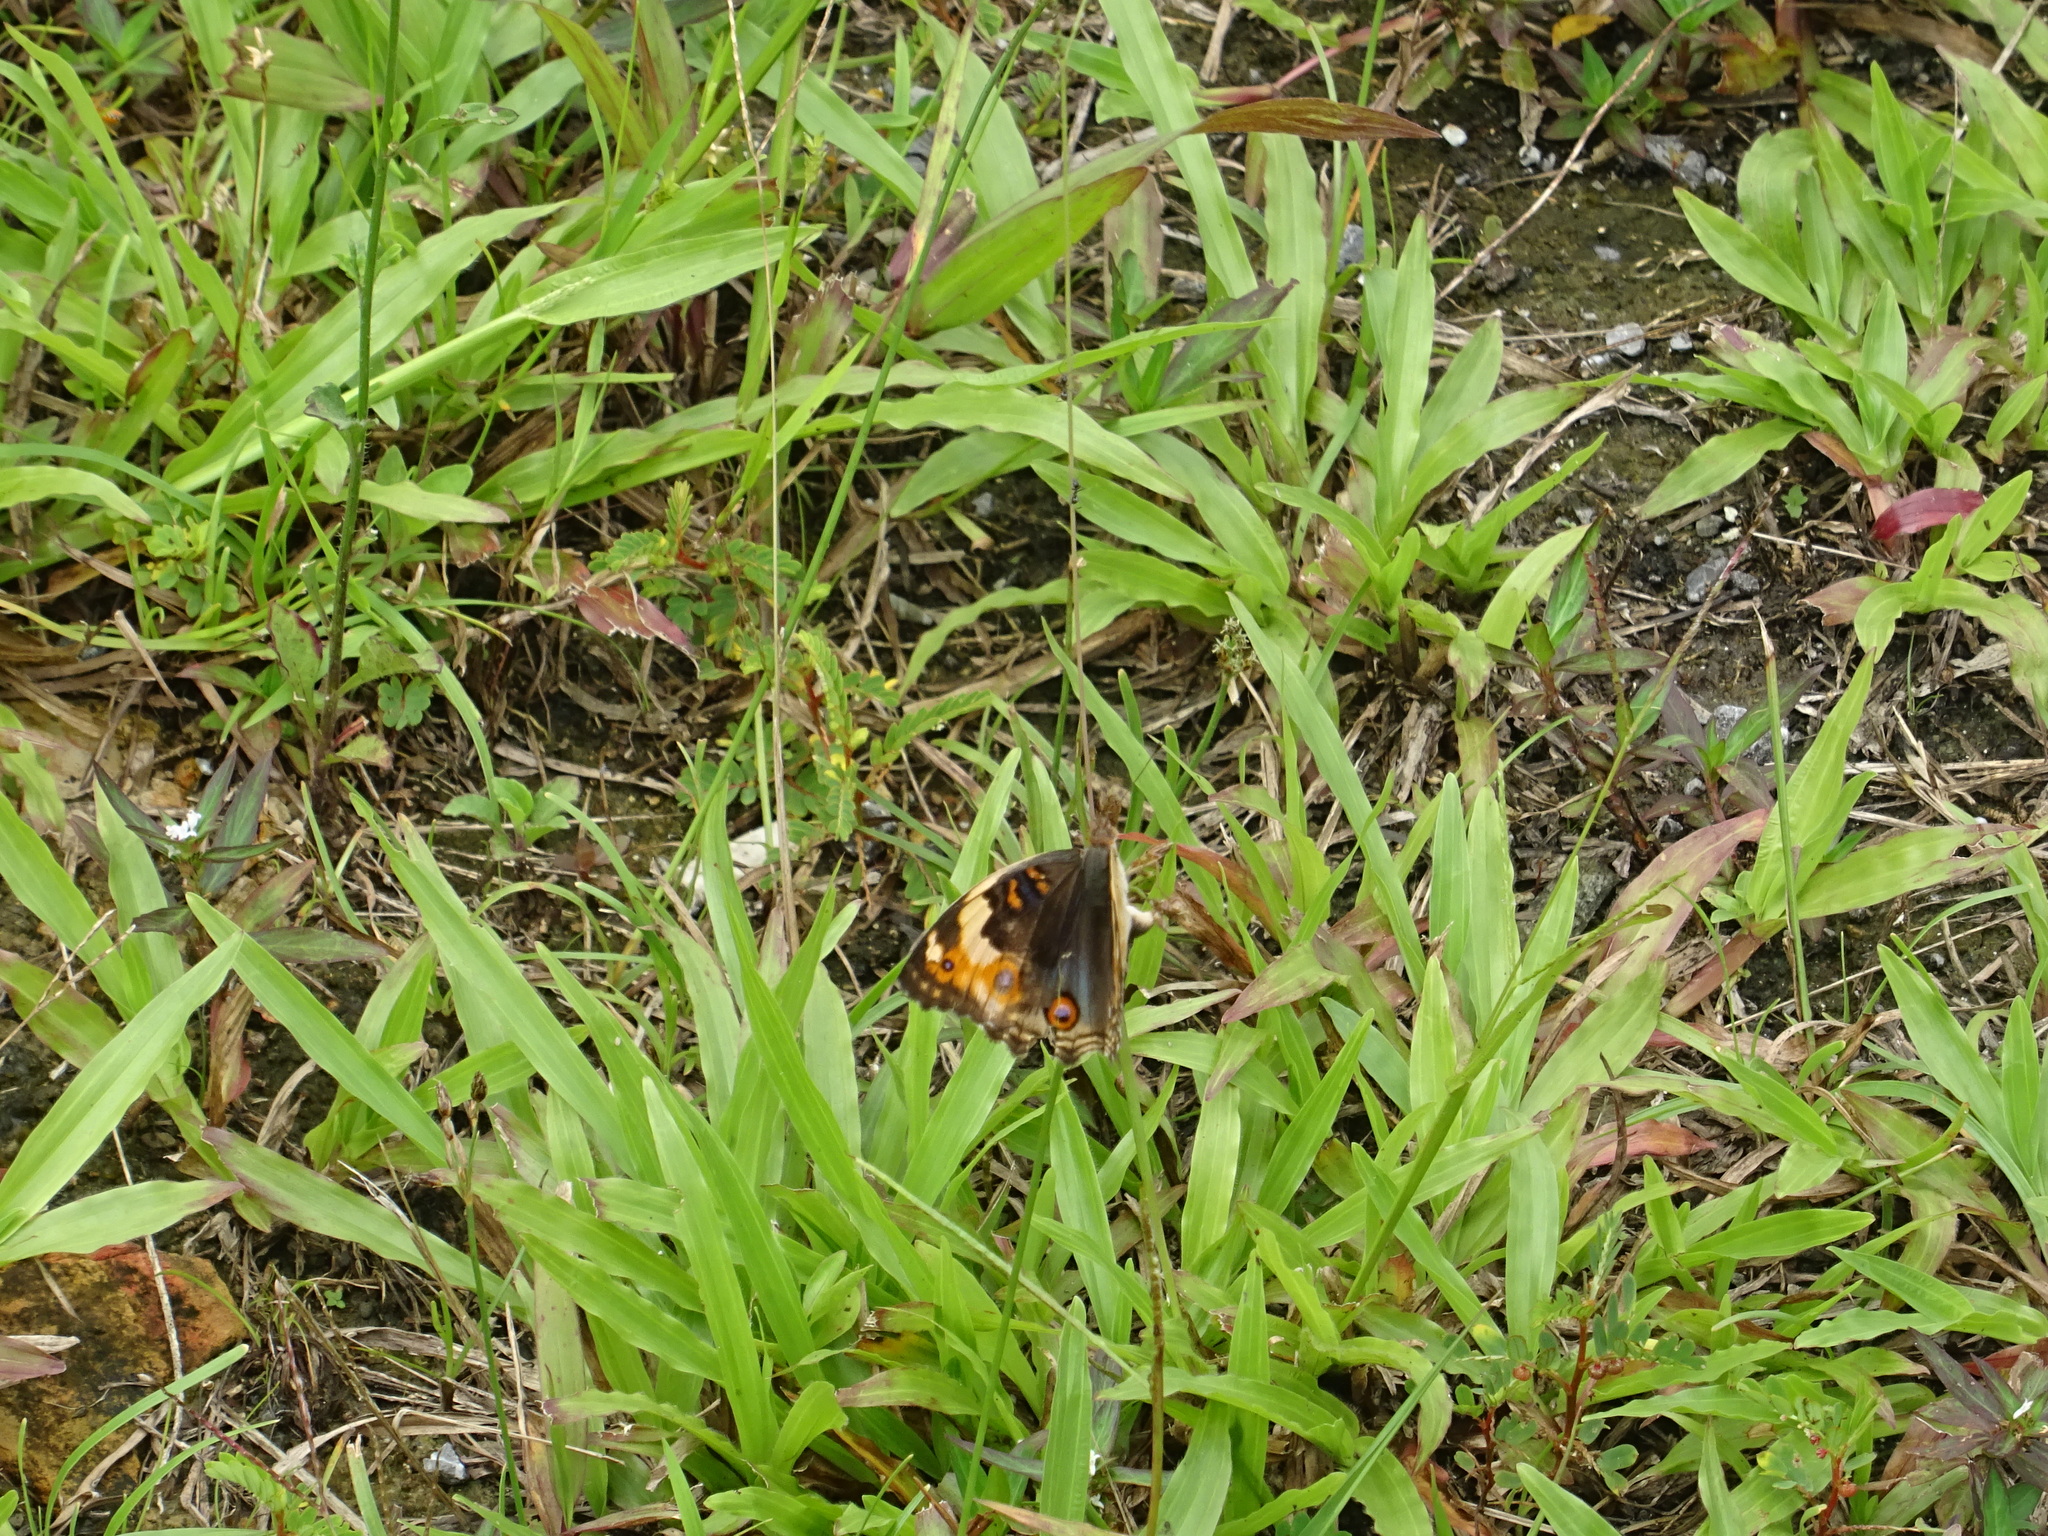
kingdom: Animalia
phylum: Arthropoda
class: Insecta
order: Lepidoptera
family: Nymphalidae
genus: Junonia
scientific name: Junonia orithya
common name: Blue pansy
